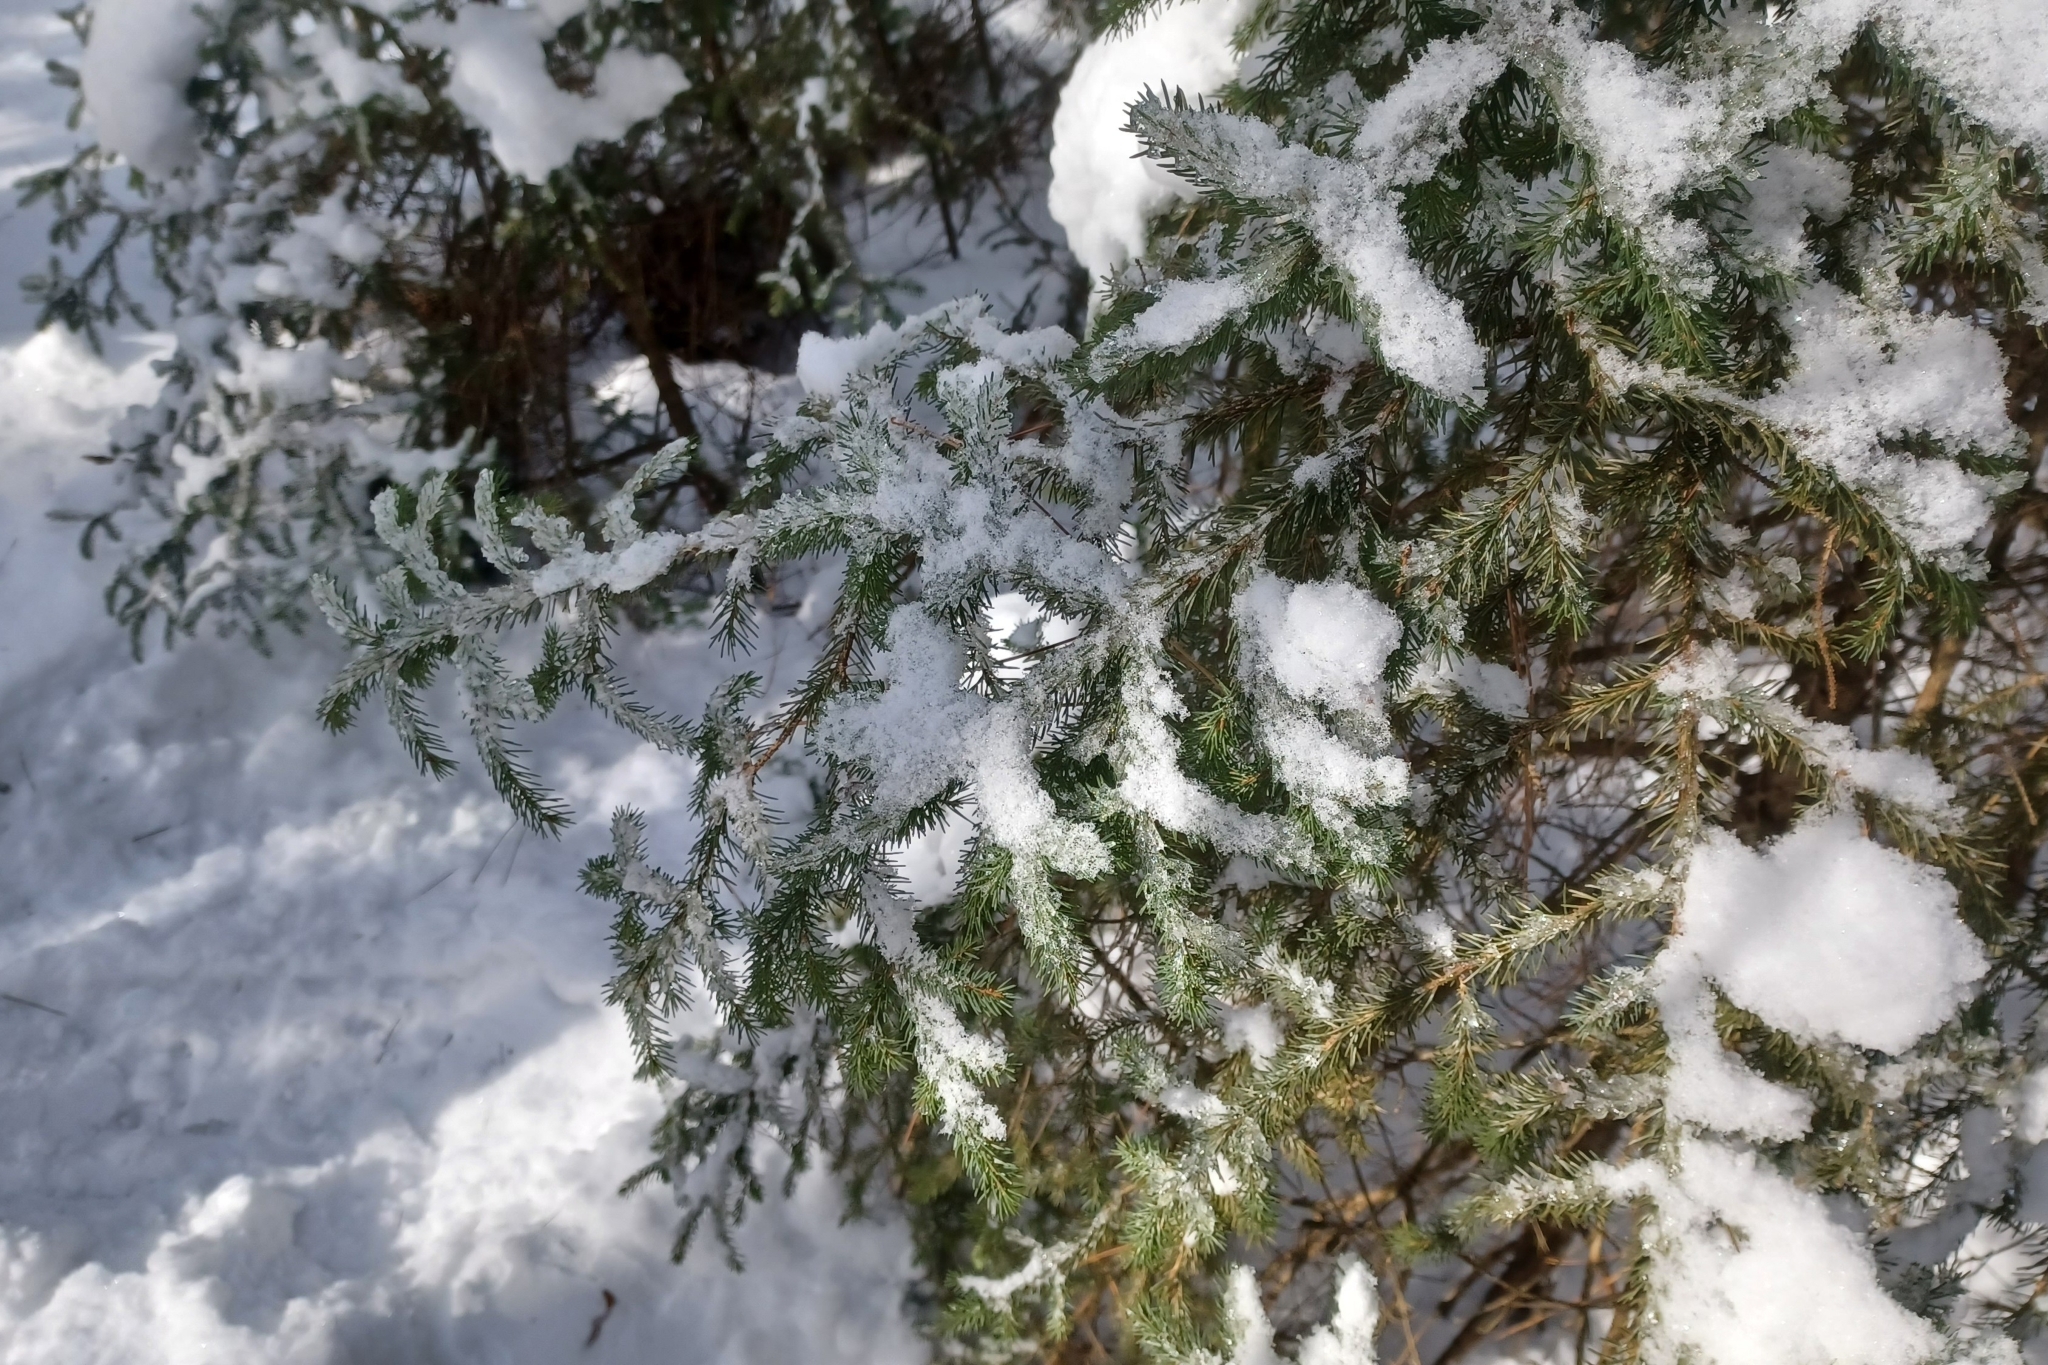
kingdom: Plantae
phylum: Tracheophyta
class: Pinopsida
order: Pinales
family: Pinaceae
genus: Picea
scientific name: Picea mariana
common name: Black spruce
